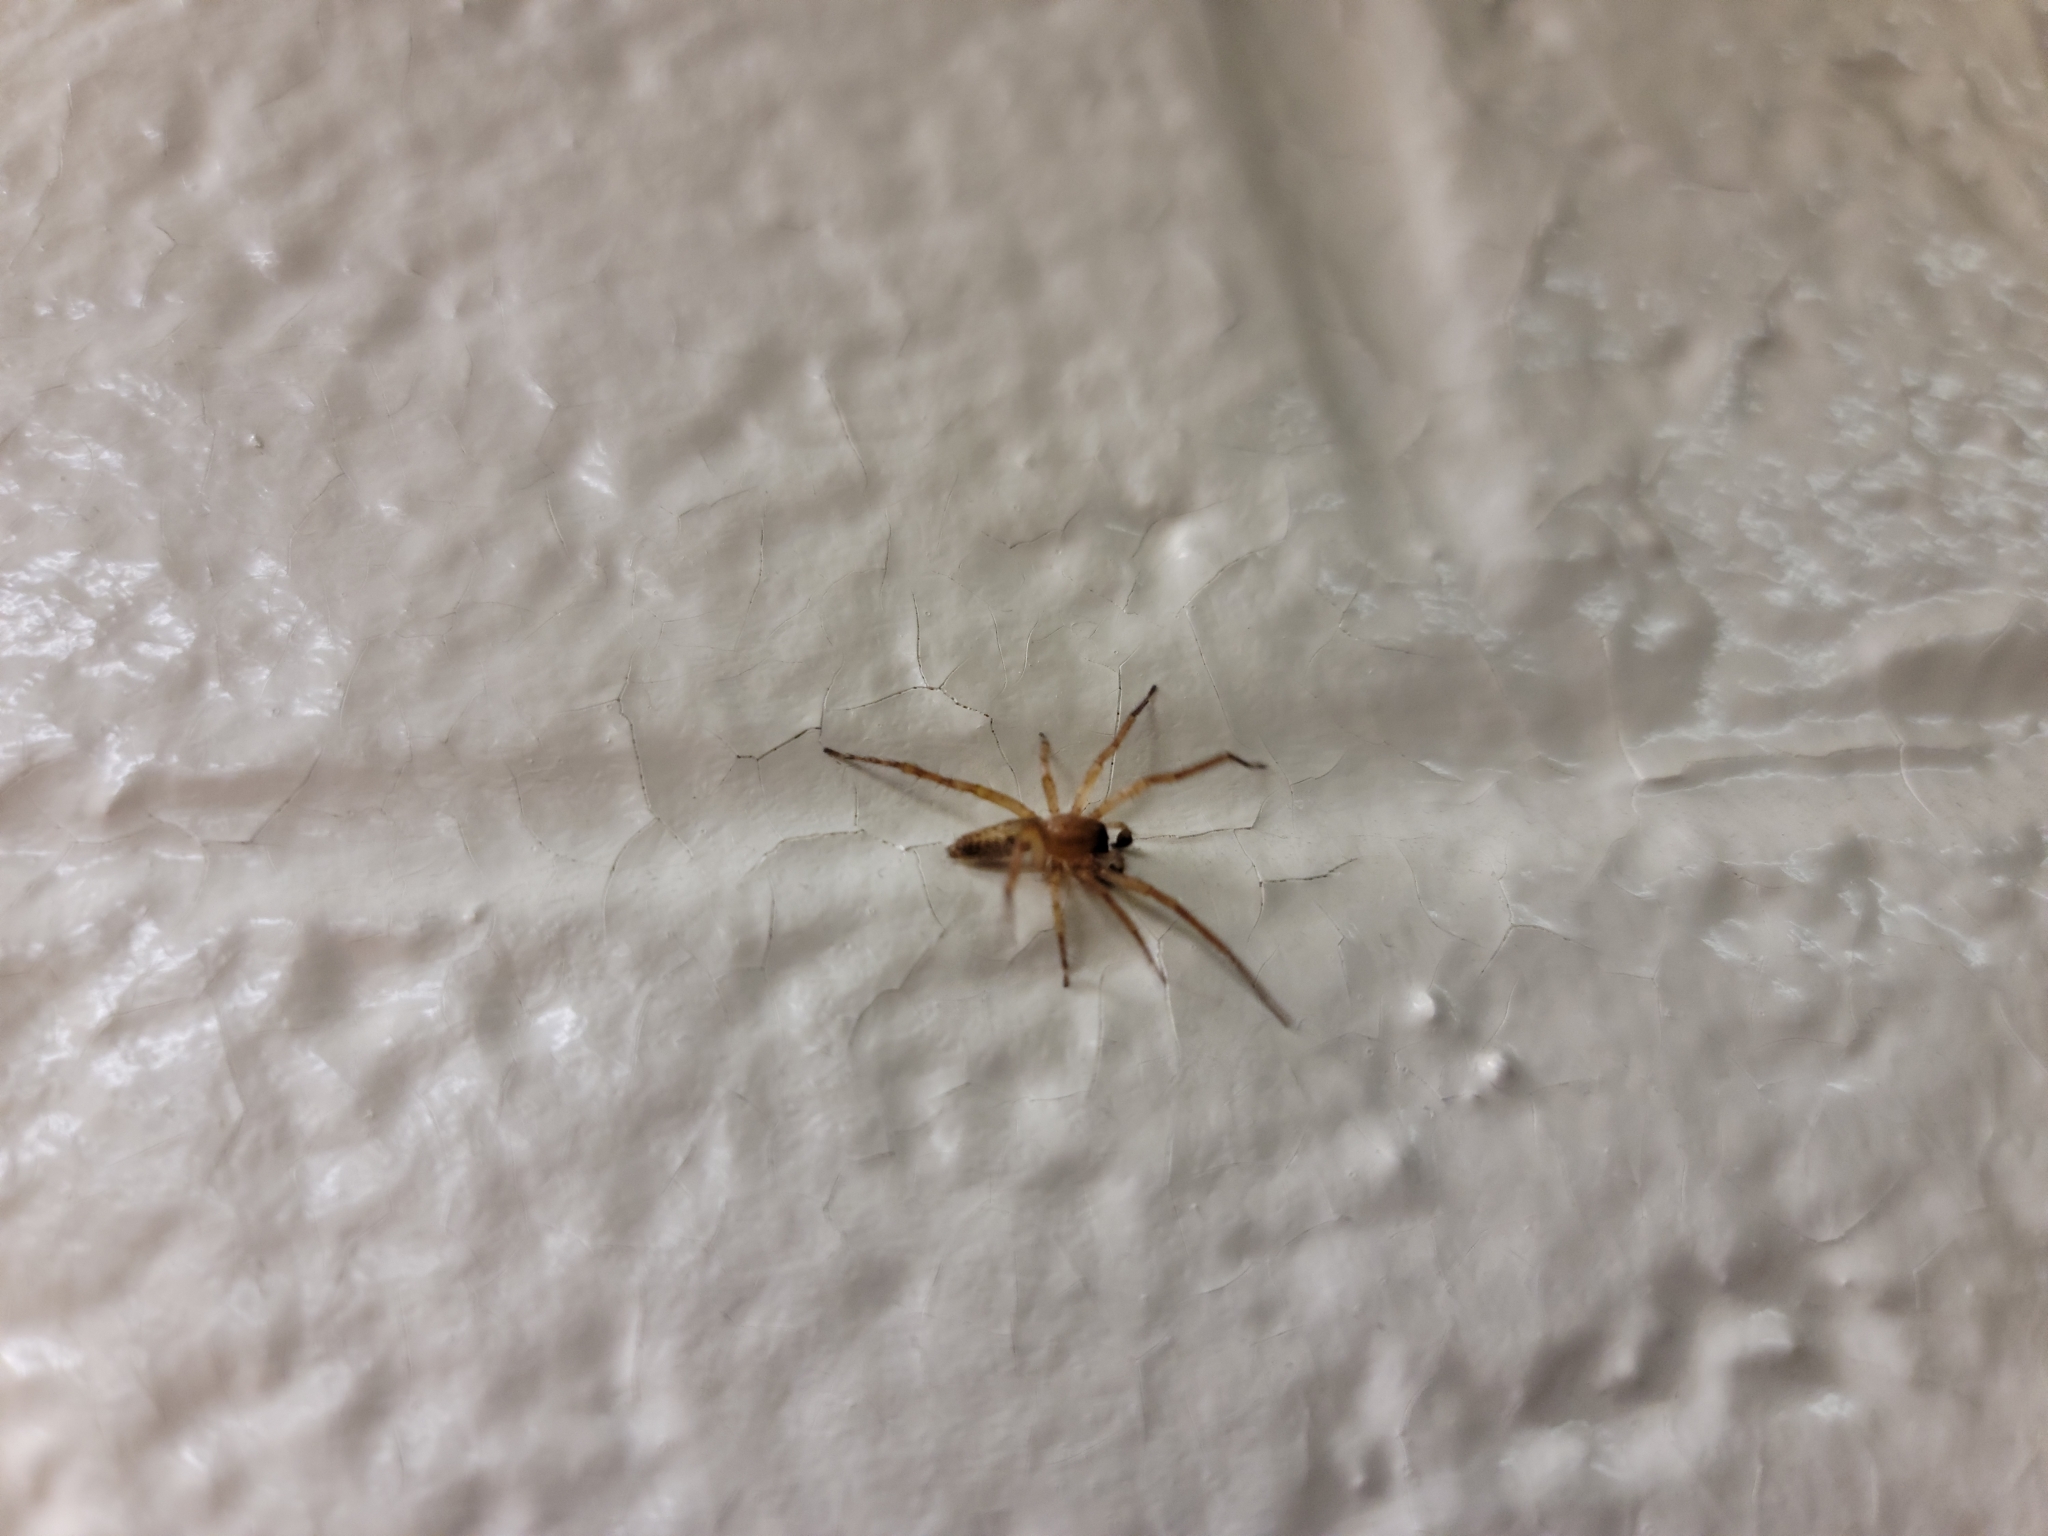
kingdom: Animalia
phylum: Arthropoda
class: Arachnida
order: Araneae
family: Anyphaenidae
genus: Hibana
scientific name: Hibana gracilis
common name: Garden ghost spider
